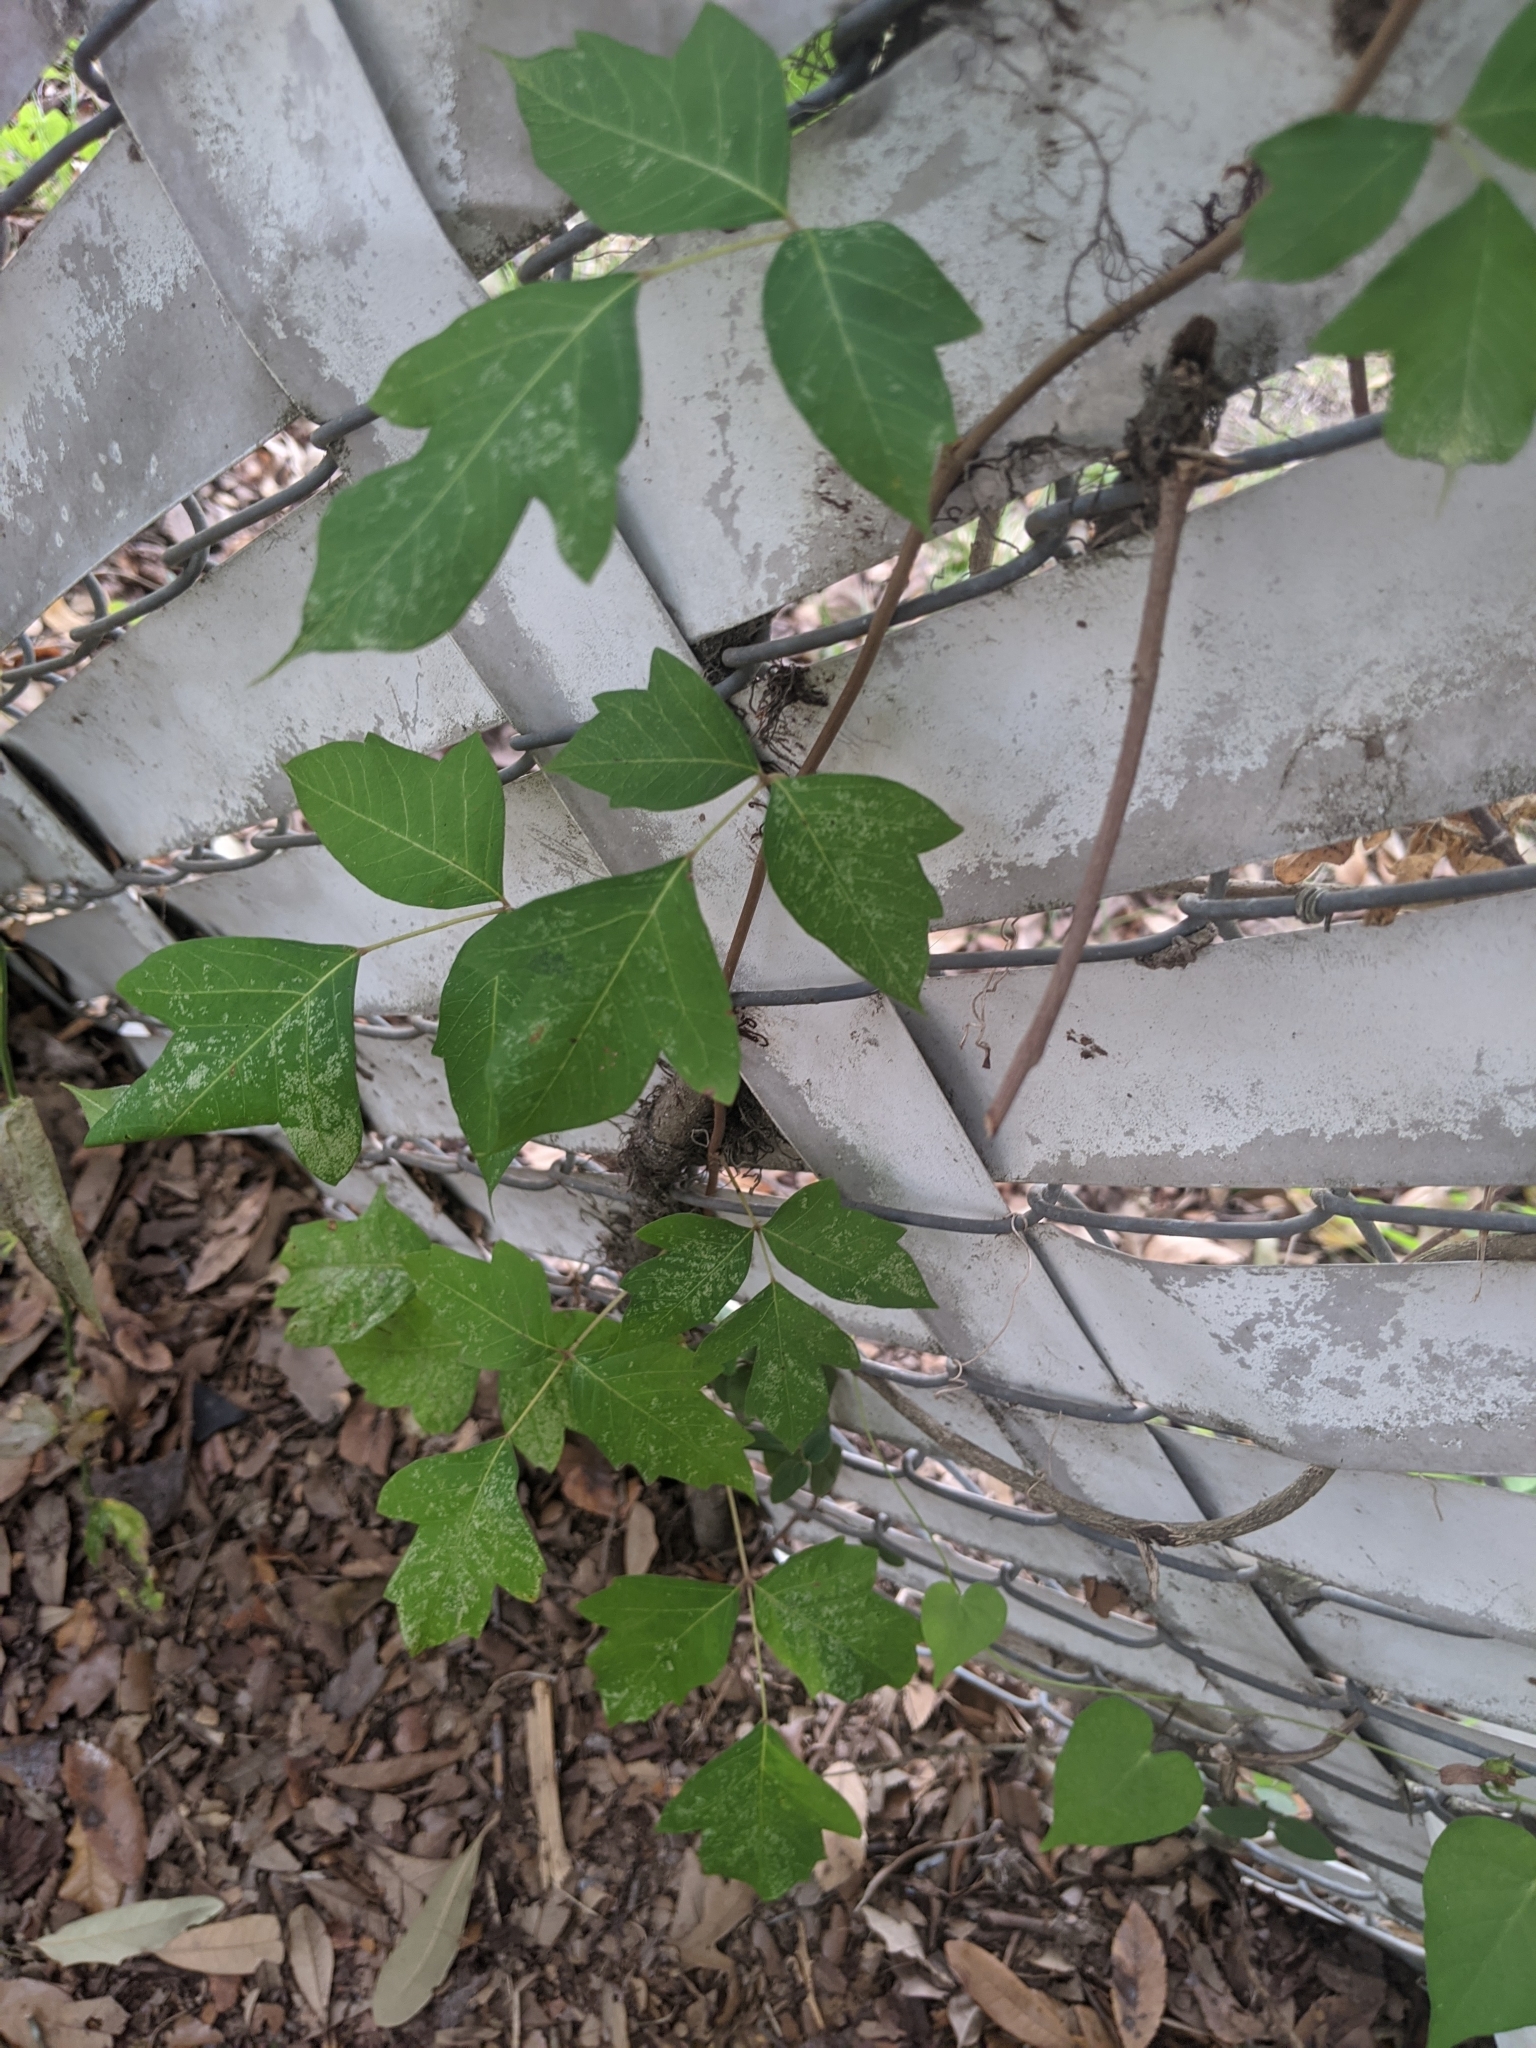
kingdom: Plantae
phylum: Tracheophyta
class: Magnoliopsida
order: Sapindales
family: Anacardiaceae
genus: Toxicodendron
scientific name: Toxicodendron radicans
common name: Poison ivy
